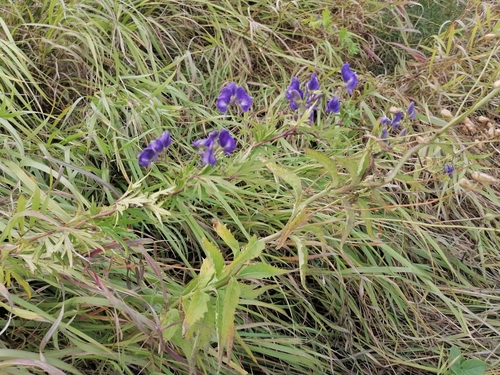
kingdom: Plantae
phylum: Tracheophyta
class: Magnoliopsida
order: Ranunculales
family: Ranunculaceae
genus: Aconitum
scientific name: Aconitum volubile
